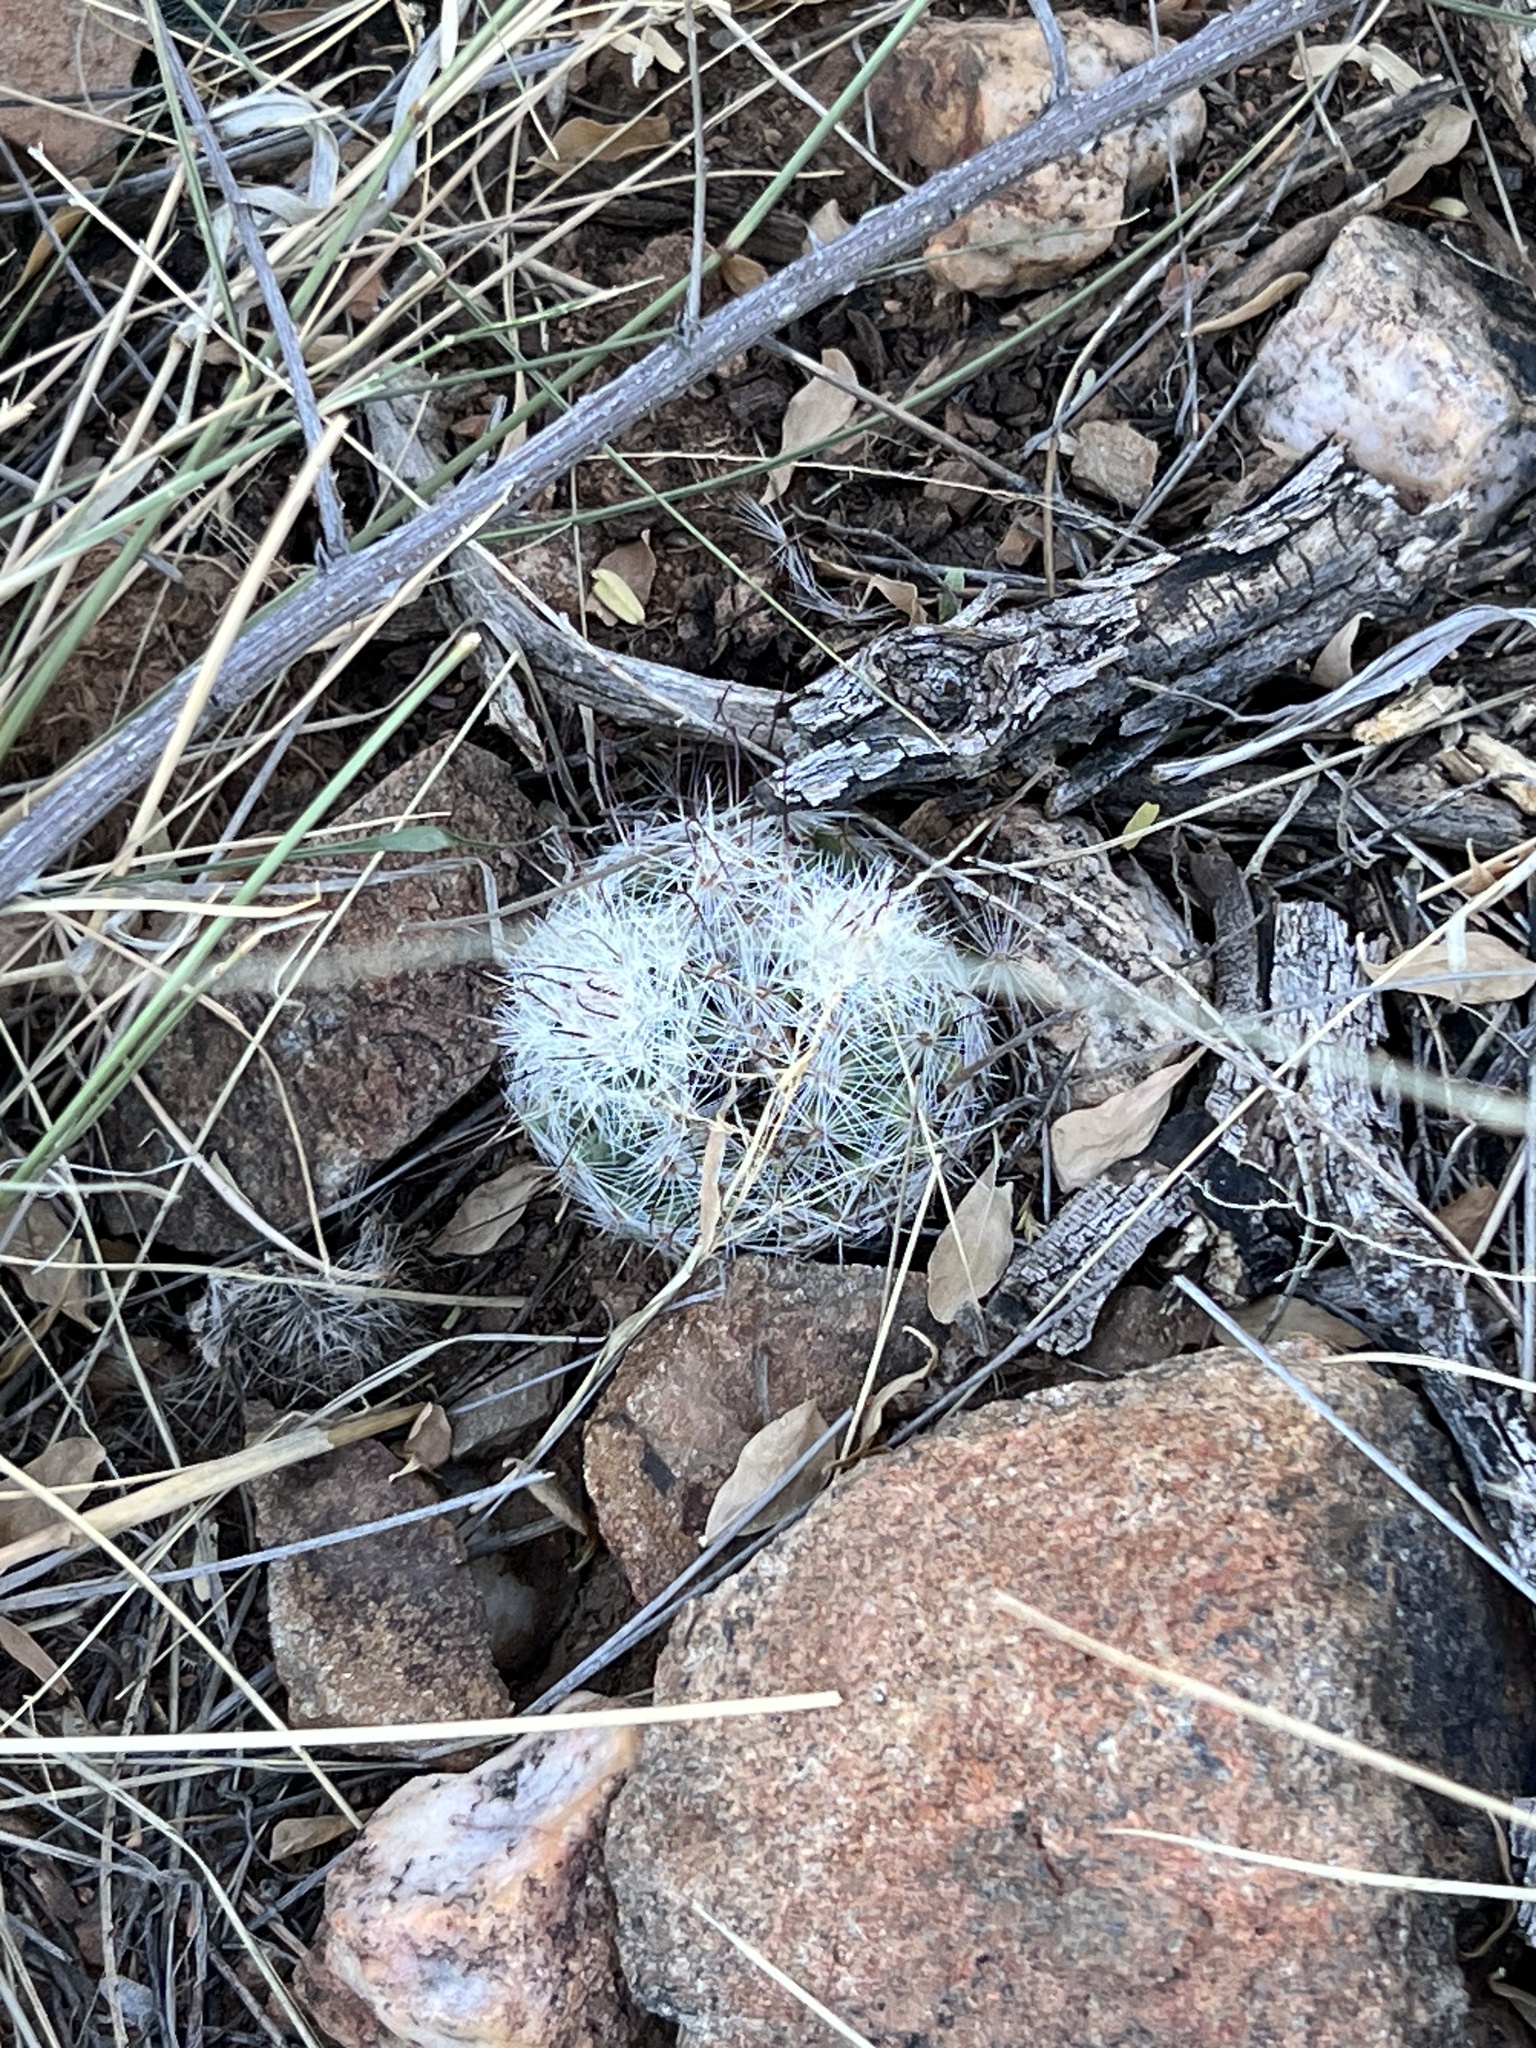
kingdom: Plantae
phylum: Tracheophyta
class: Magnoliopsida
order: Caryophyllales
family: Cactaceae
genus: Cochemiea
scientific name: Cochemiea grahamii
